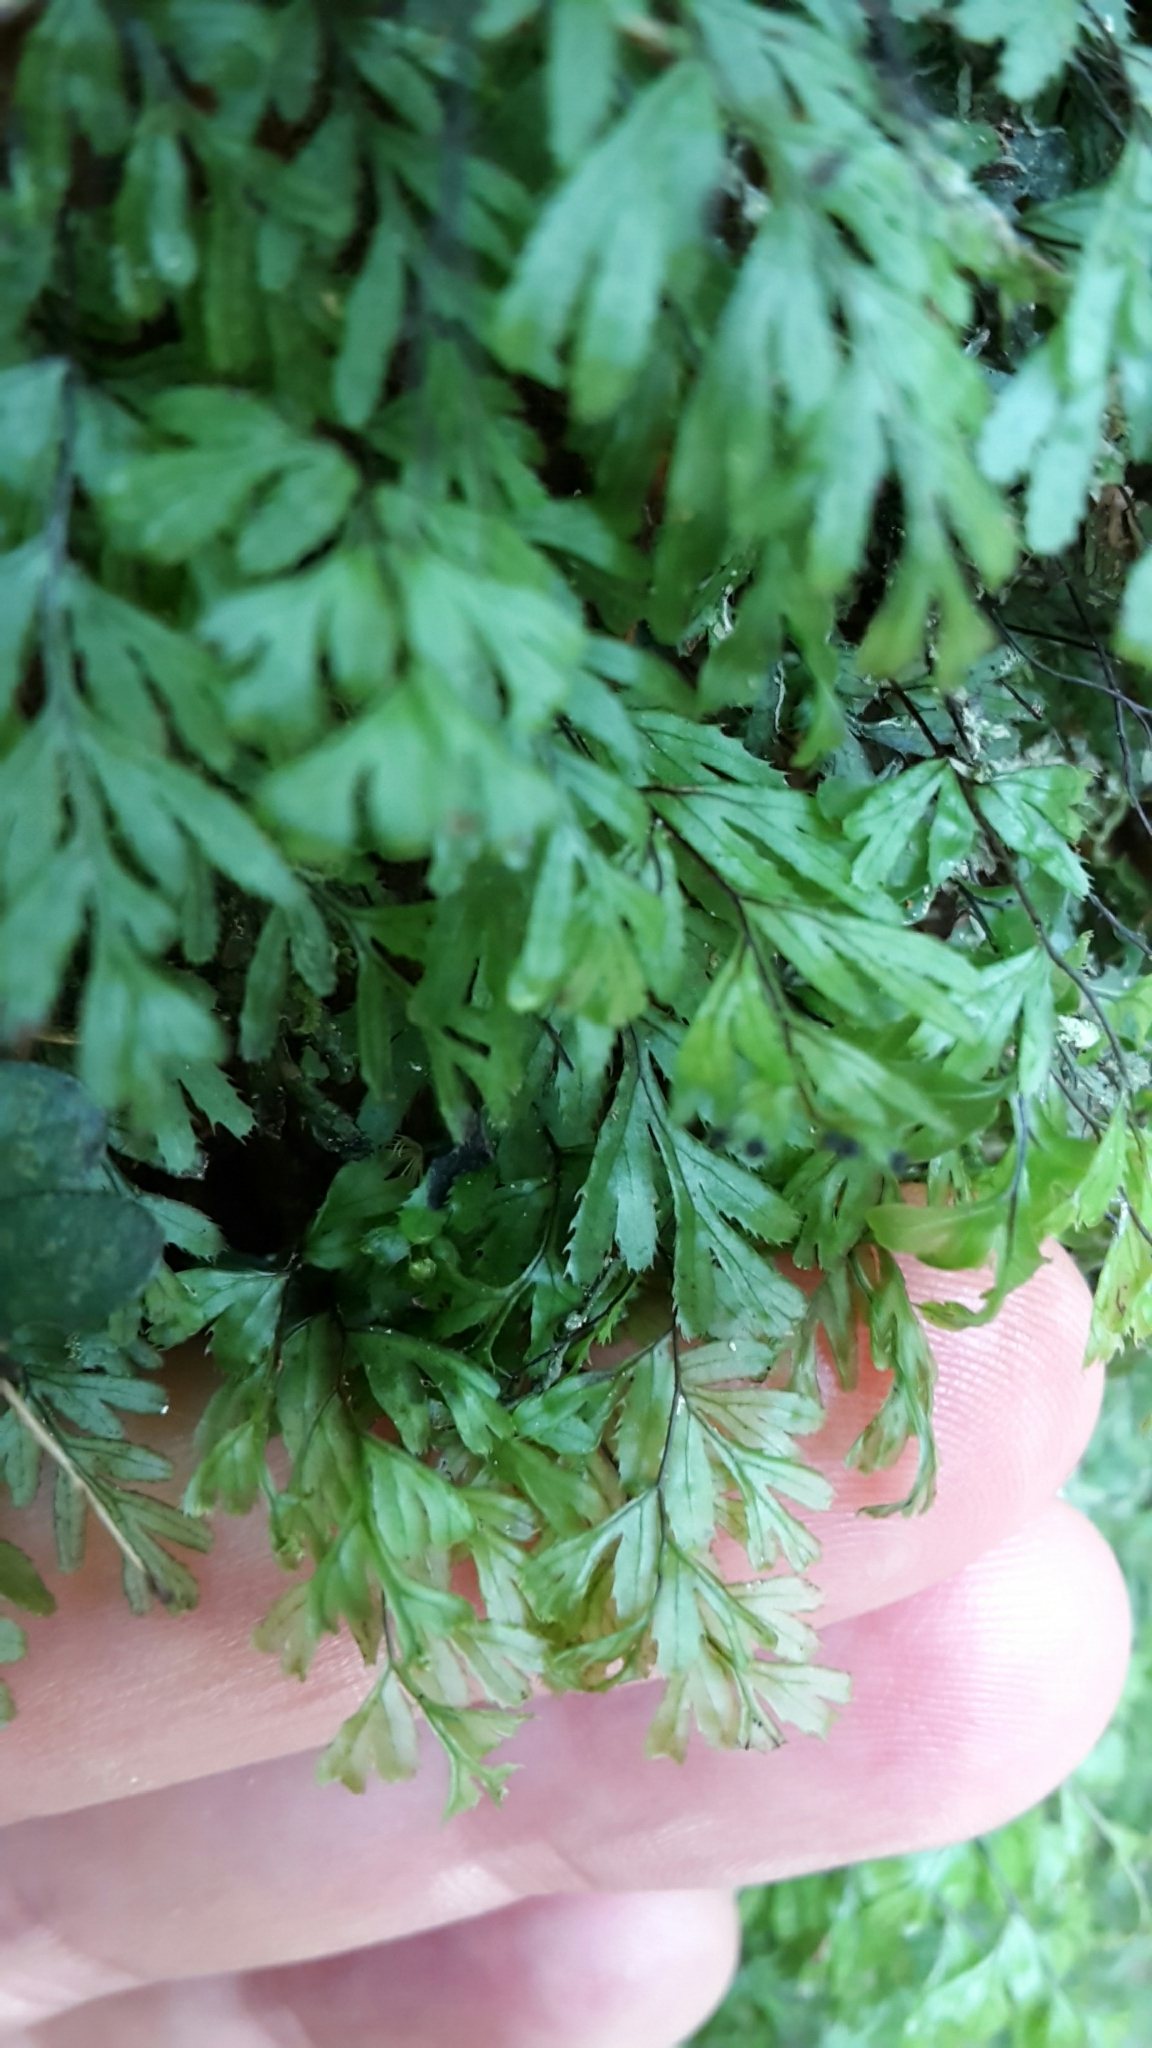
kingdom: Plantae
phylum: Tracheophyta
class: Polypodiopsida
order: Hymenophyllales
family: Hymenophyllaceae
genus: Hymenophyllum
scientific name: Hymenophyllum revolutum
